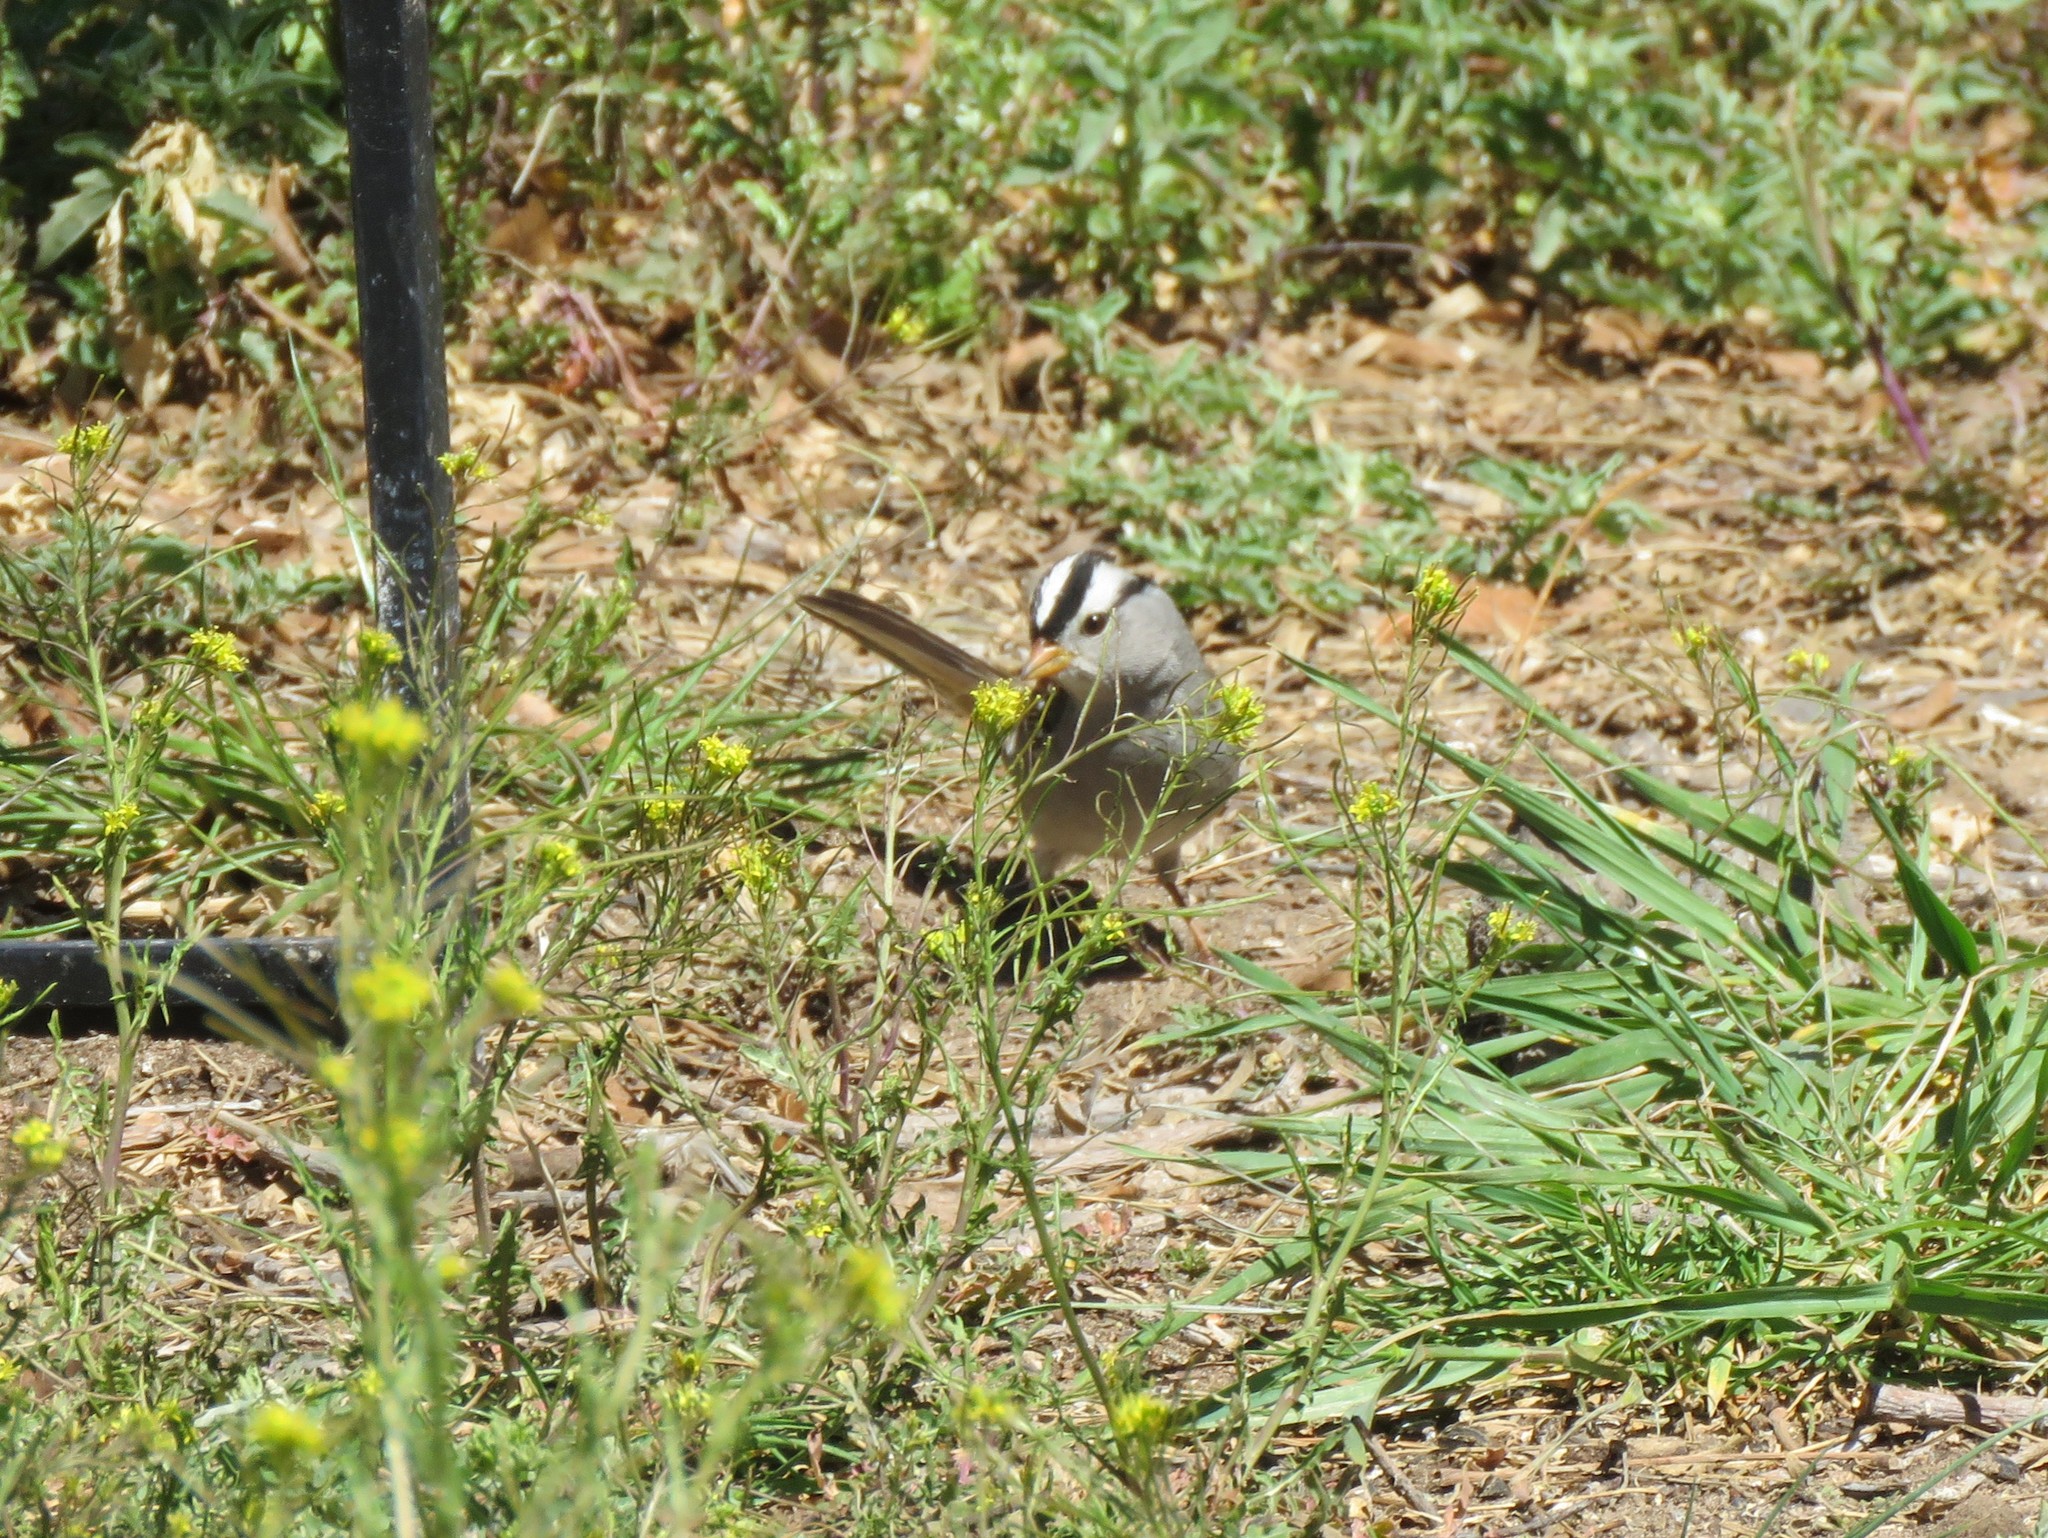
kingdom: Animalia
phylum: Chordata
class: Aves
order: Passeriformes
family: Passerellidae
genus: Zonotrichia
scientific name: Zonotrichia leucophrys
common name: White-crowned sparrow
